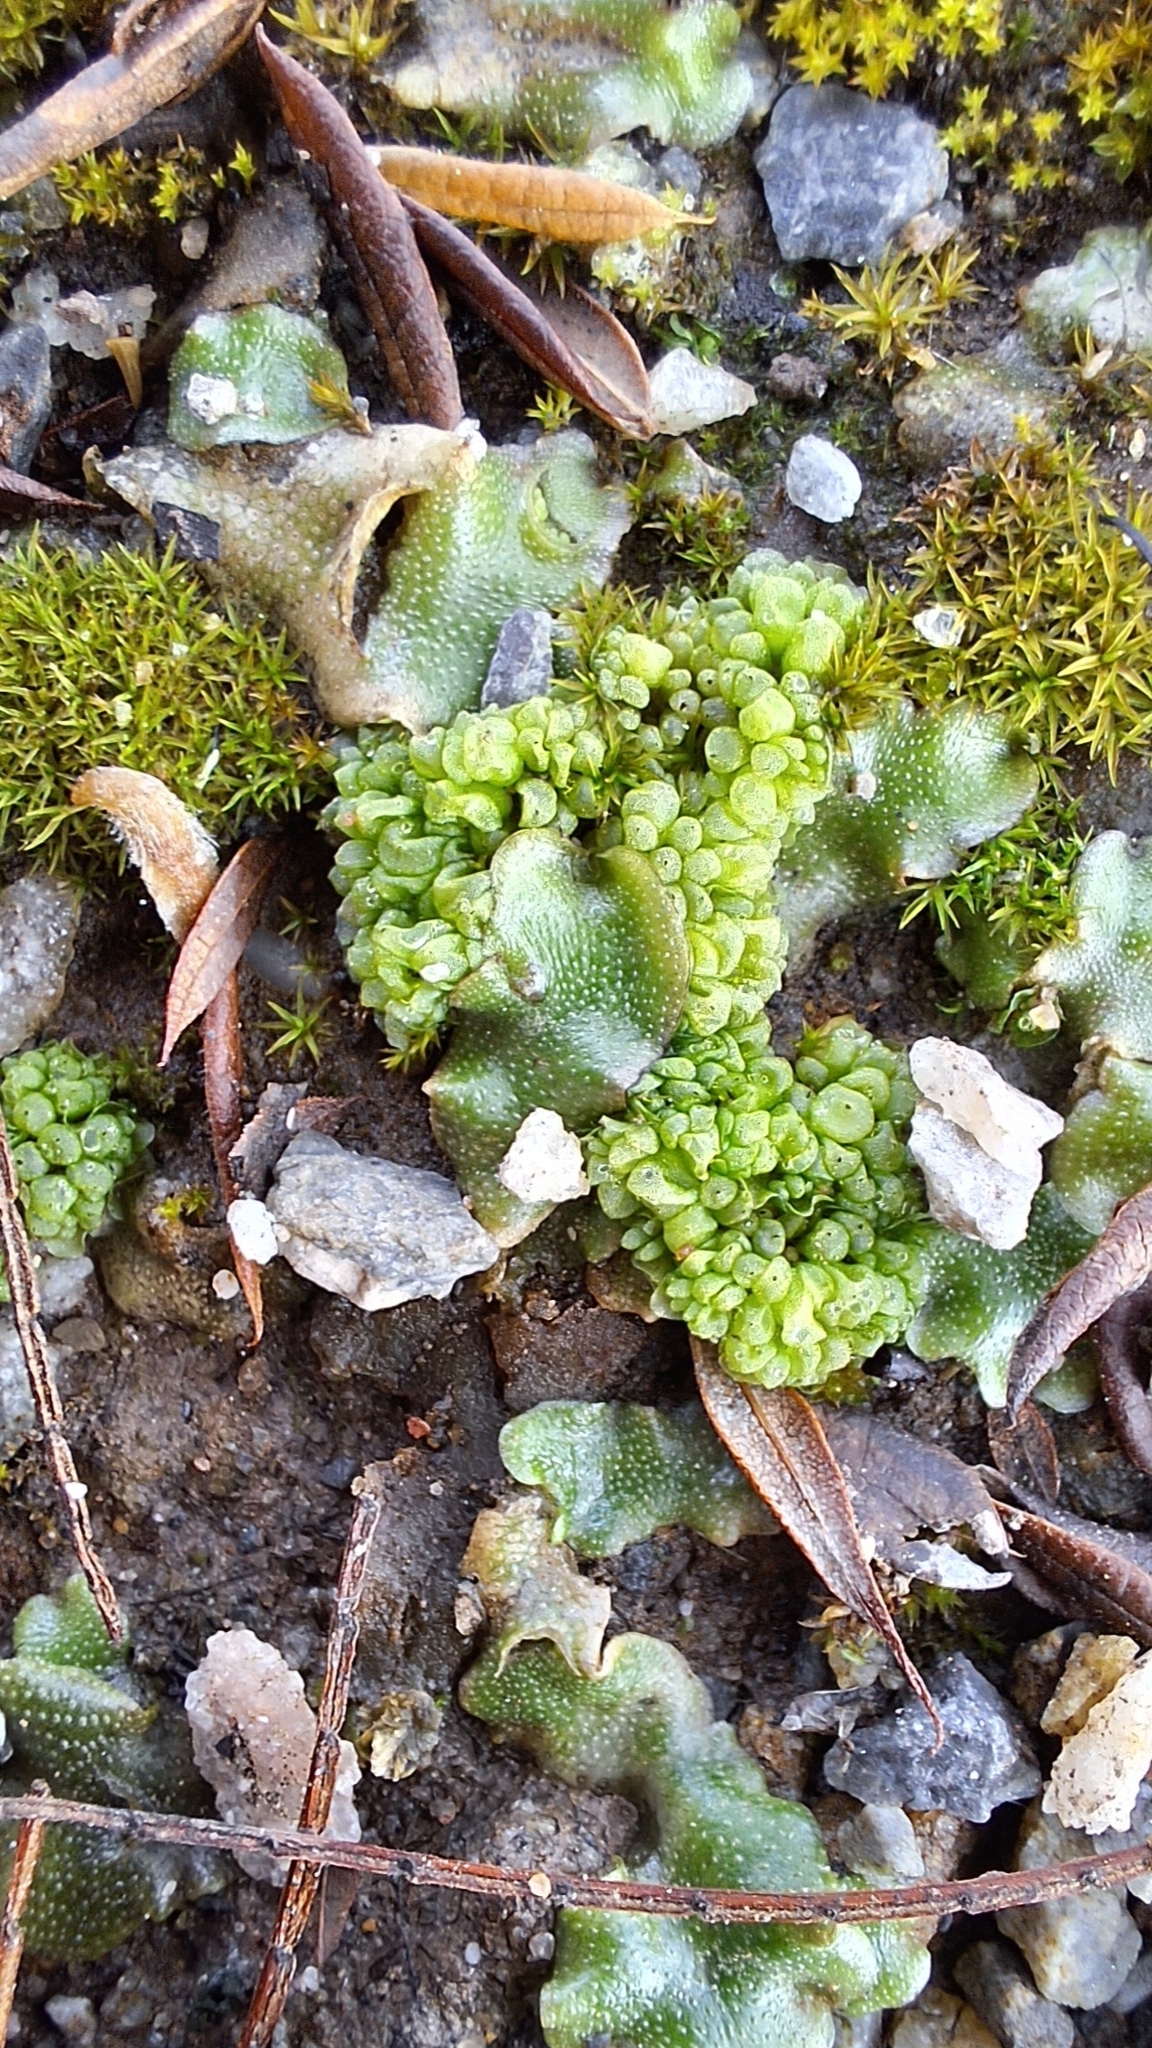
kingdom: Plantae
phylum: Marchantiophyta
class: Marchantiopsida
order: Sphaerocarpales
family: Sphaerocarpaceae
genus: Sphaerocarpos
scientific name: Sphaerocarpos texanus
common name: Texas balloonwort
